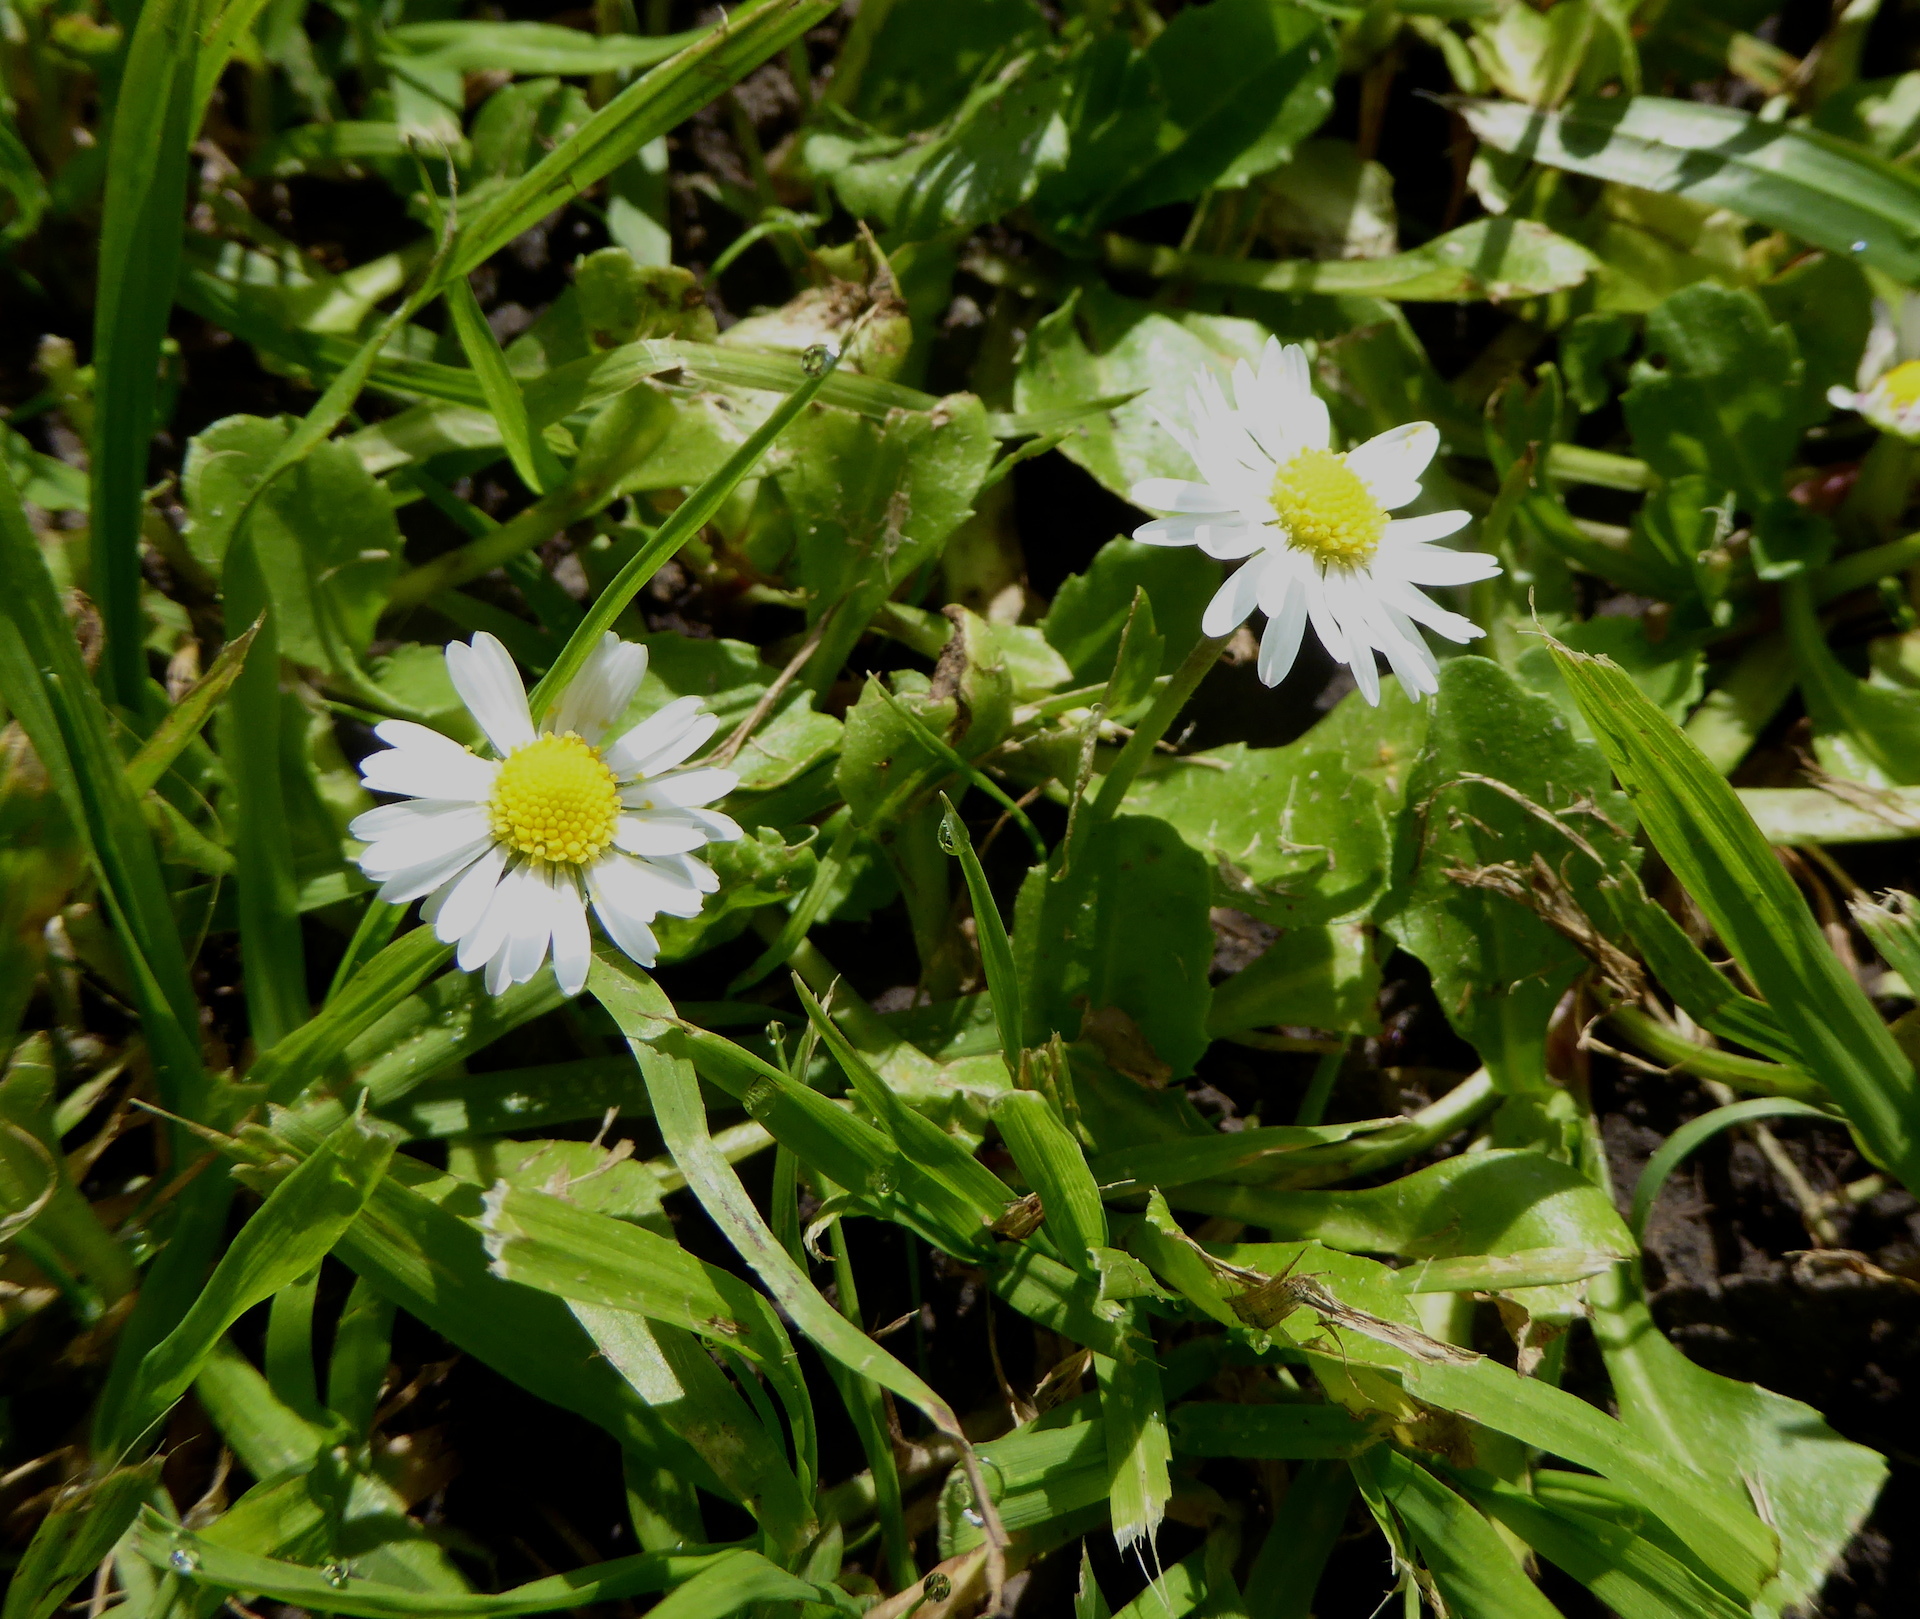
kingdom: Plantae
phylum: Tracheophyta
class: Magnoliopsida
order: Asterales
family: Asteraceae
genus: Bellis
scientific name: Bellis perennis
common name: Lawndaisy
